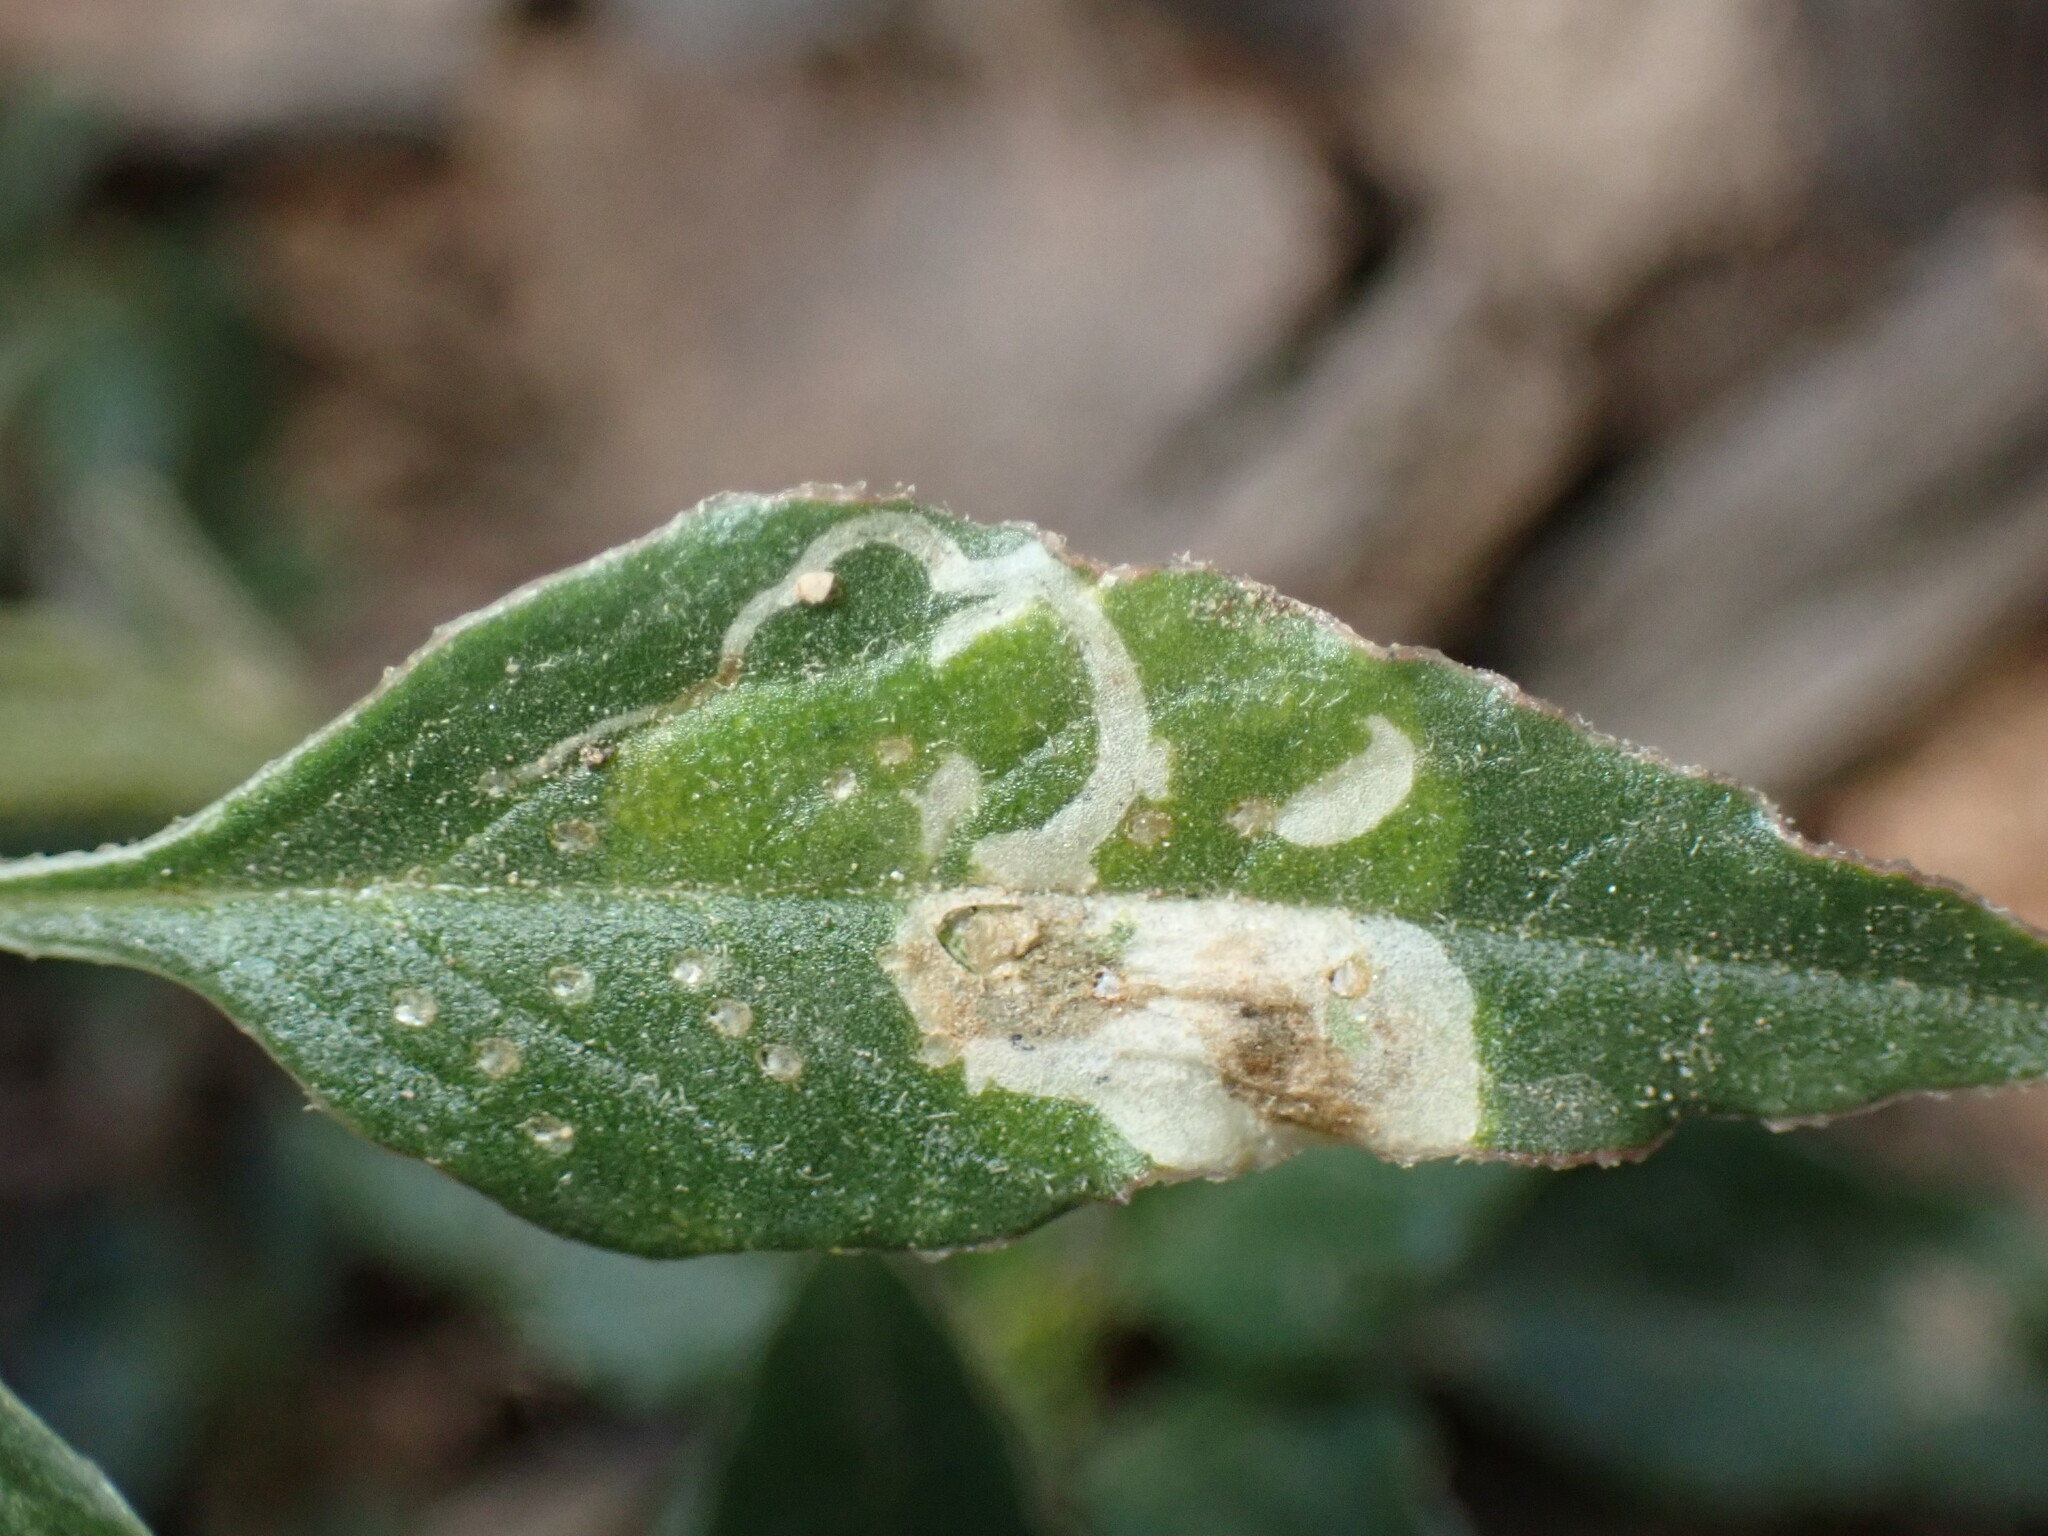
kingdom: Animalia
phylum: Arthropoda
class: Insecta
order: Diptera
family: Agromyzidae
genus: Haplopeodes
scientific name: Haplopeodes minutus
